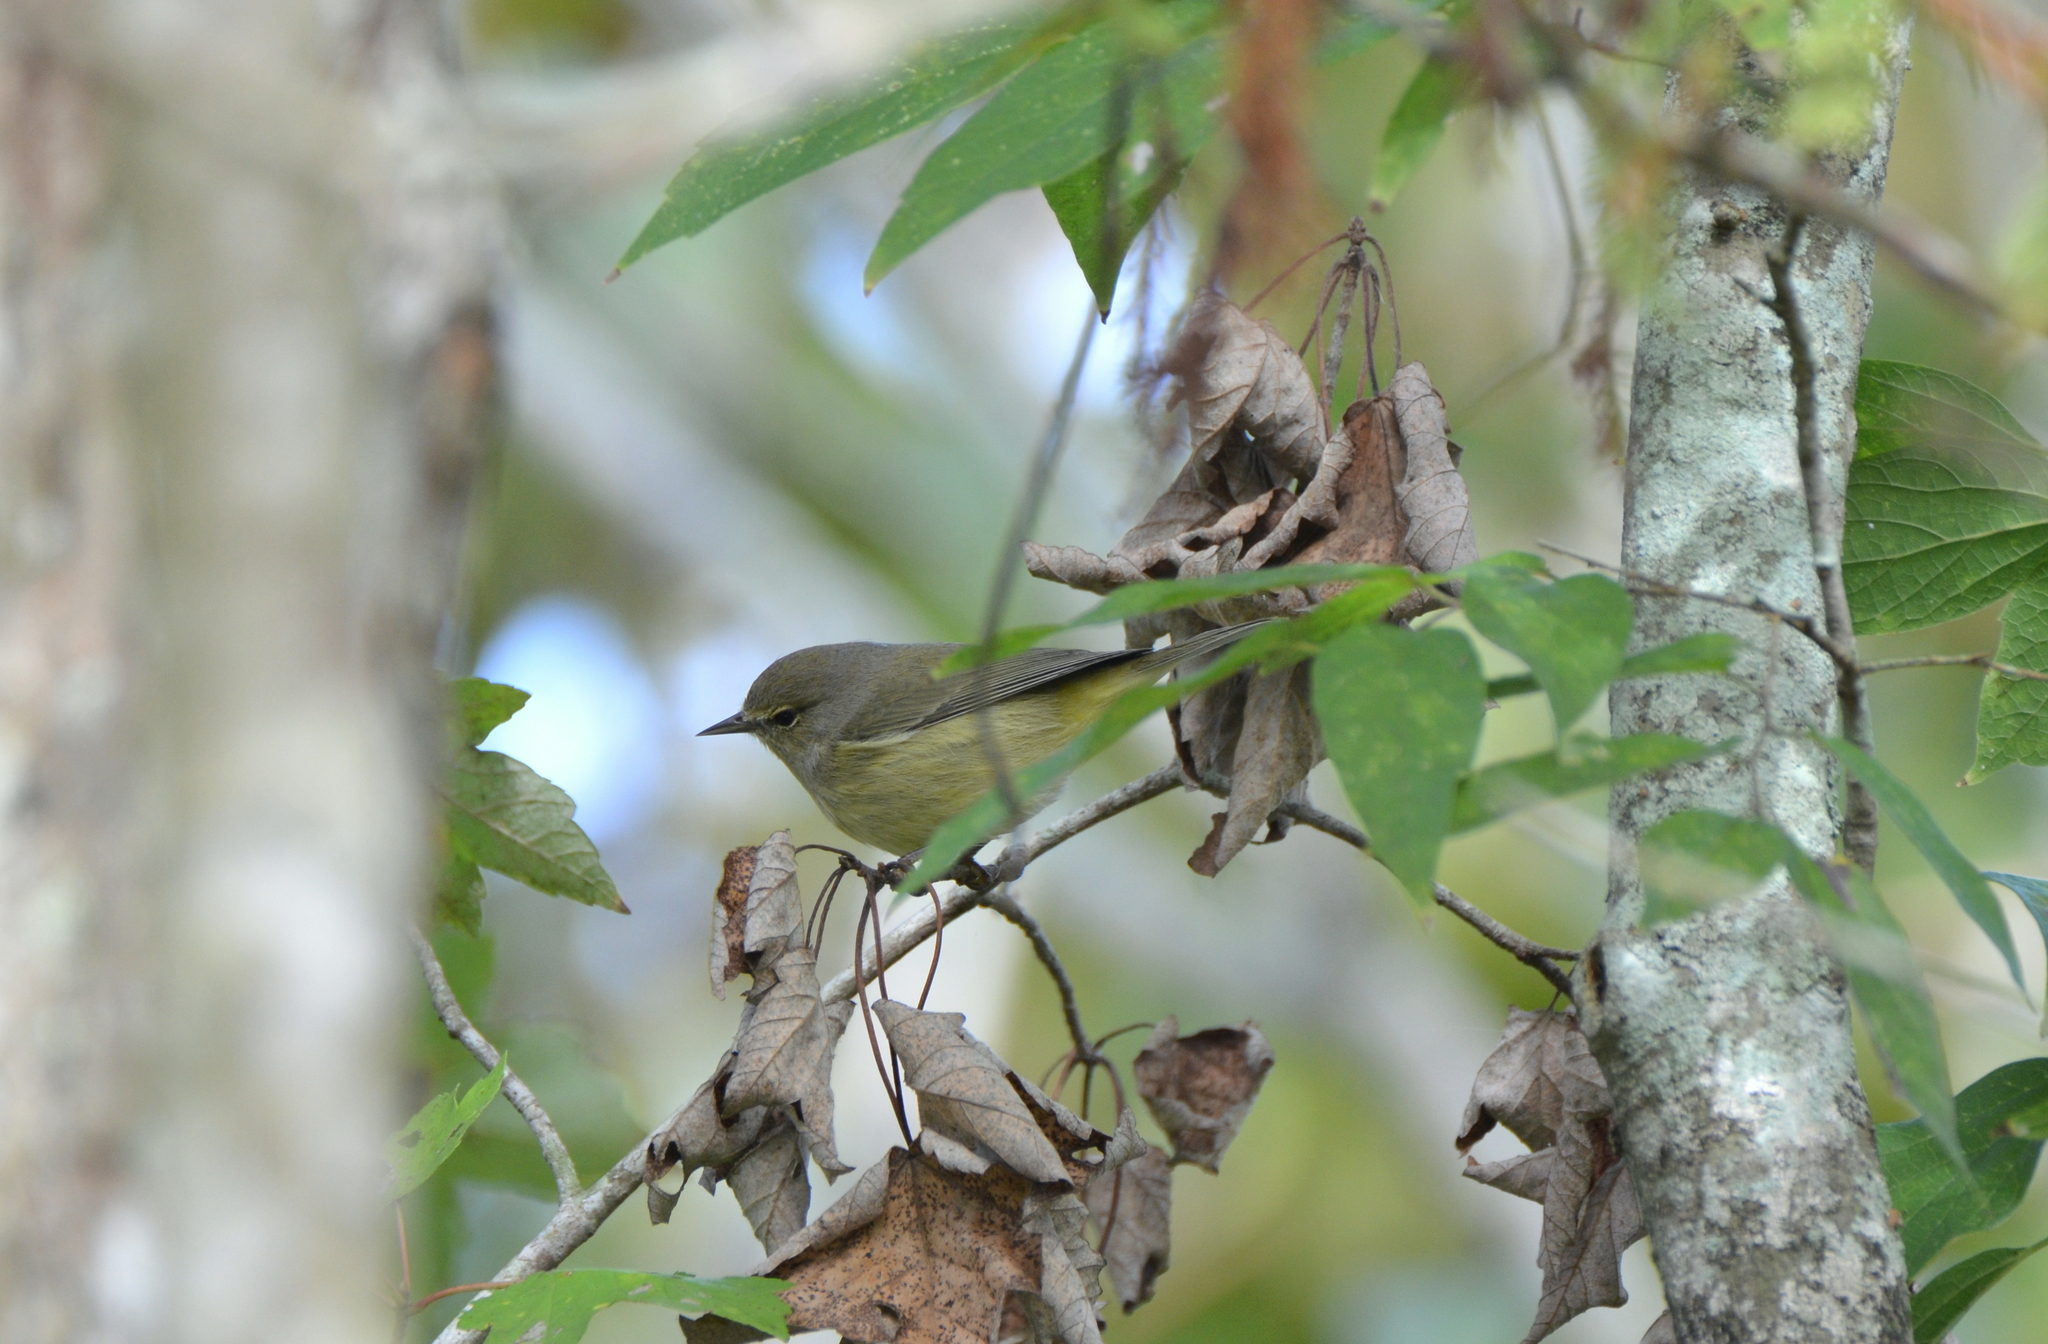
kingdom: Animalia
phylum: Chordata
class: Aves
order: Passeriformes
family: Parulidae
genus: Leiothlypis
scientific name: Leiothlypis celata
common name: Orange-crowned warbler
